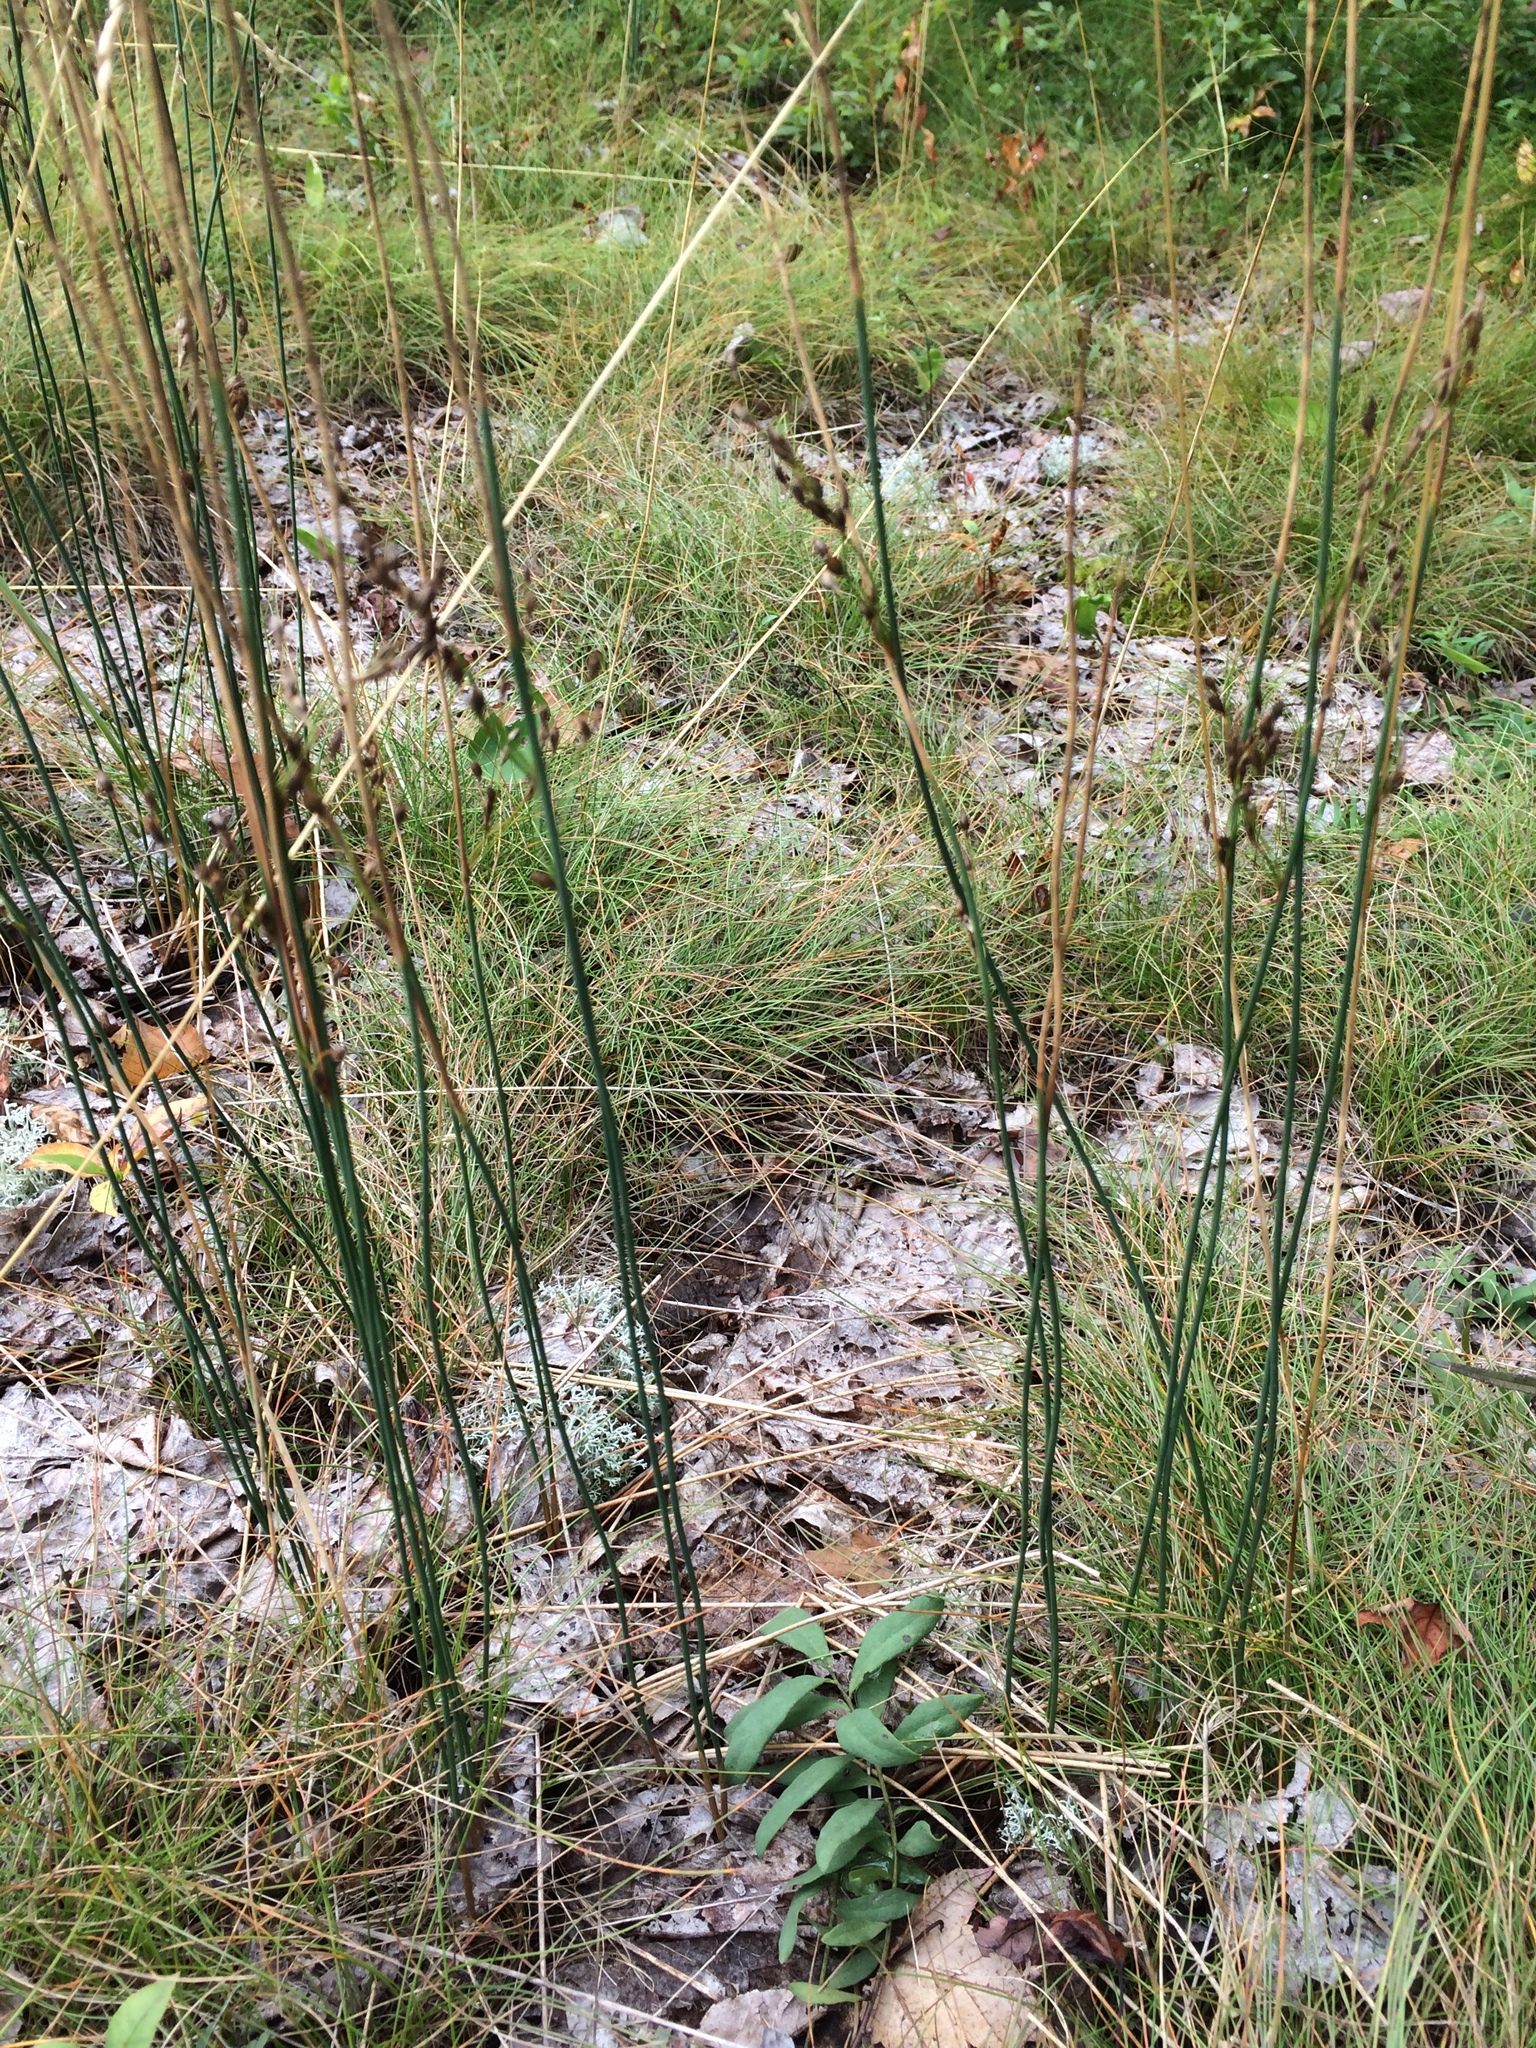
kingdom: Plantae
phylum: Tracheophyta
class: Liliopsida
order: Poales
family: Juncaceae
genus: Juncus
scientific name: Juncus balticus
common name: Baltic rush
